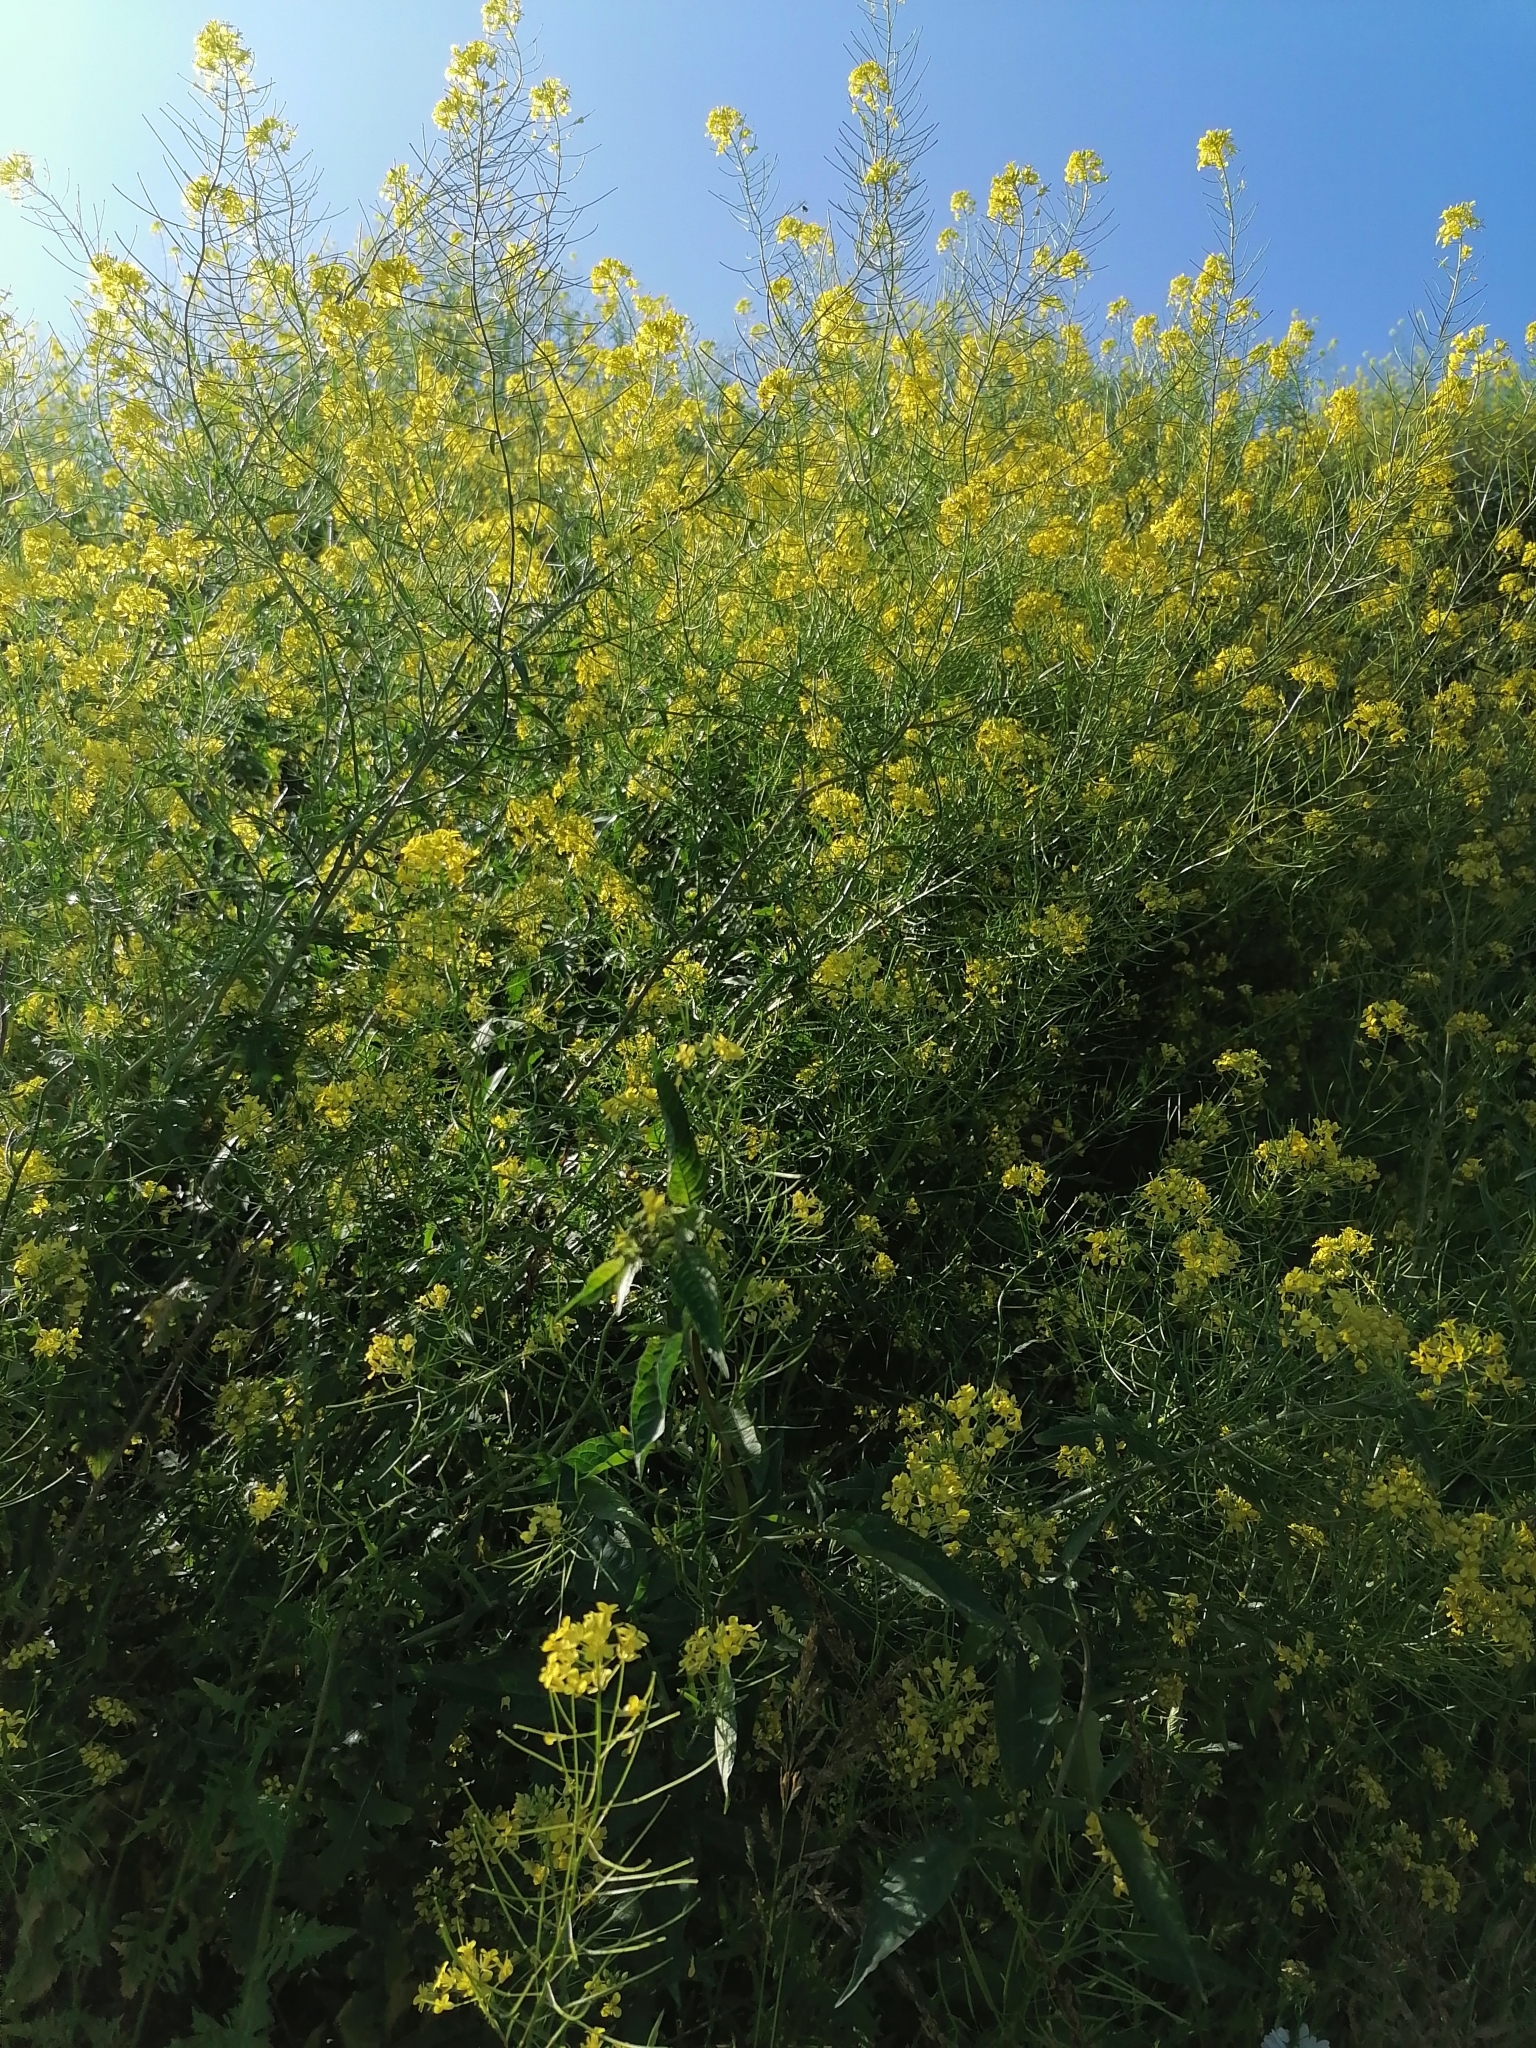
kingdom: Plantae
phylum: Tracheophyta
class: Magnoliopsida
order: Brassicales
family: Brassicaceae
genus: Sisymbrium
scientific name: Sisymbrium loeselii
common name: False london-rocket
